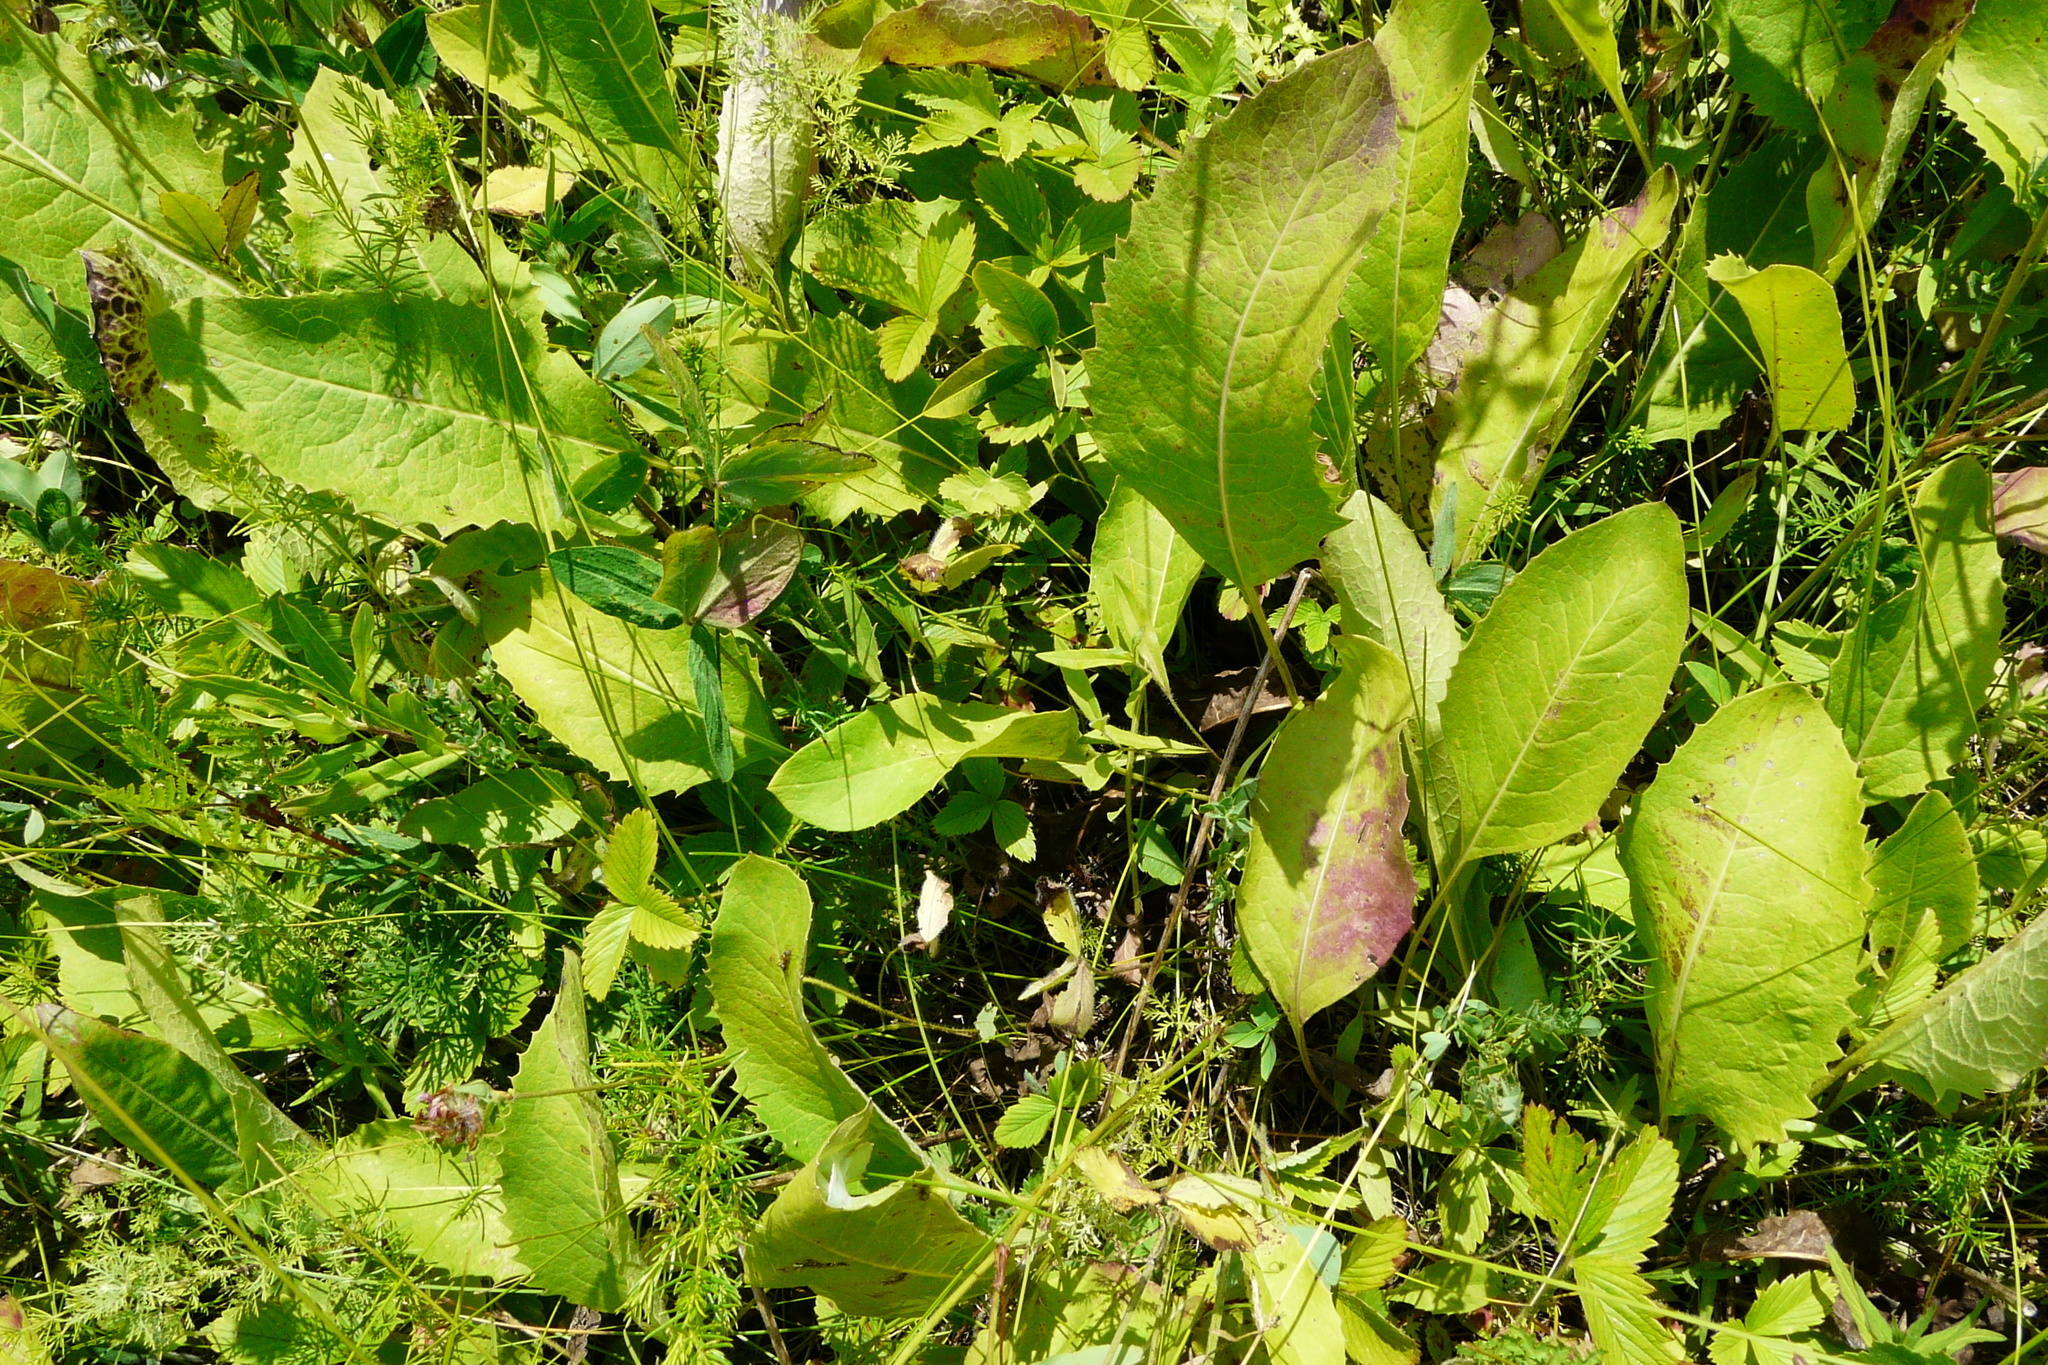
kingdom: Plantae
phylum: Tracheophyta
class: Magnoliopsida
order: Asterales
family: Asteraceae
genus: Klasea
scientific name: Klasea lycopifolia
